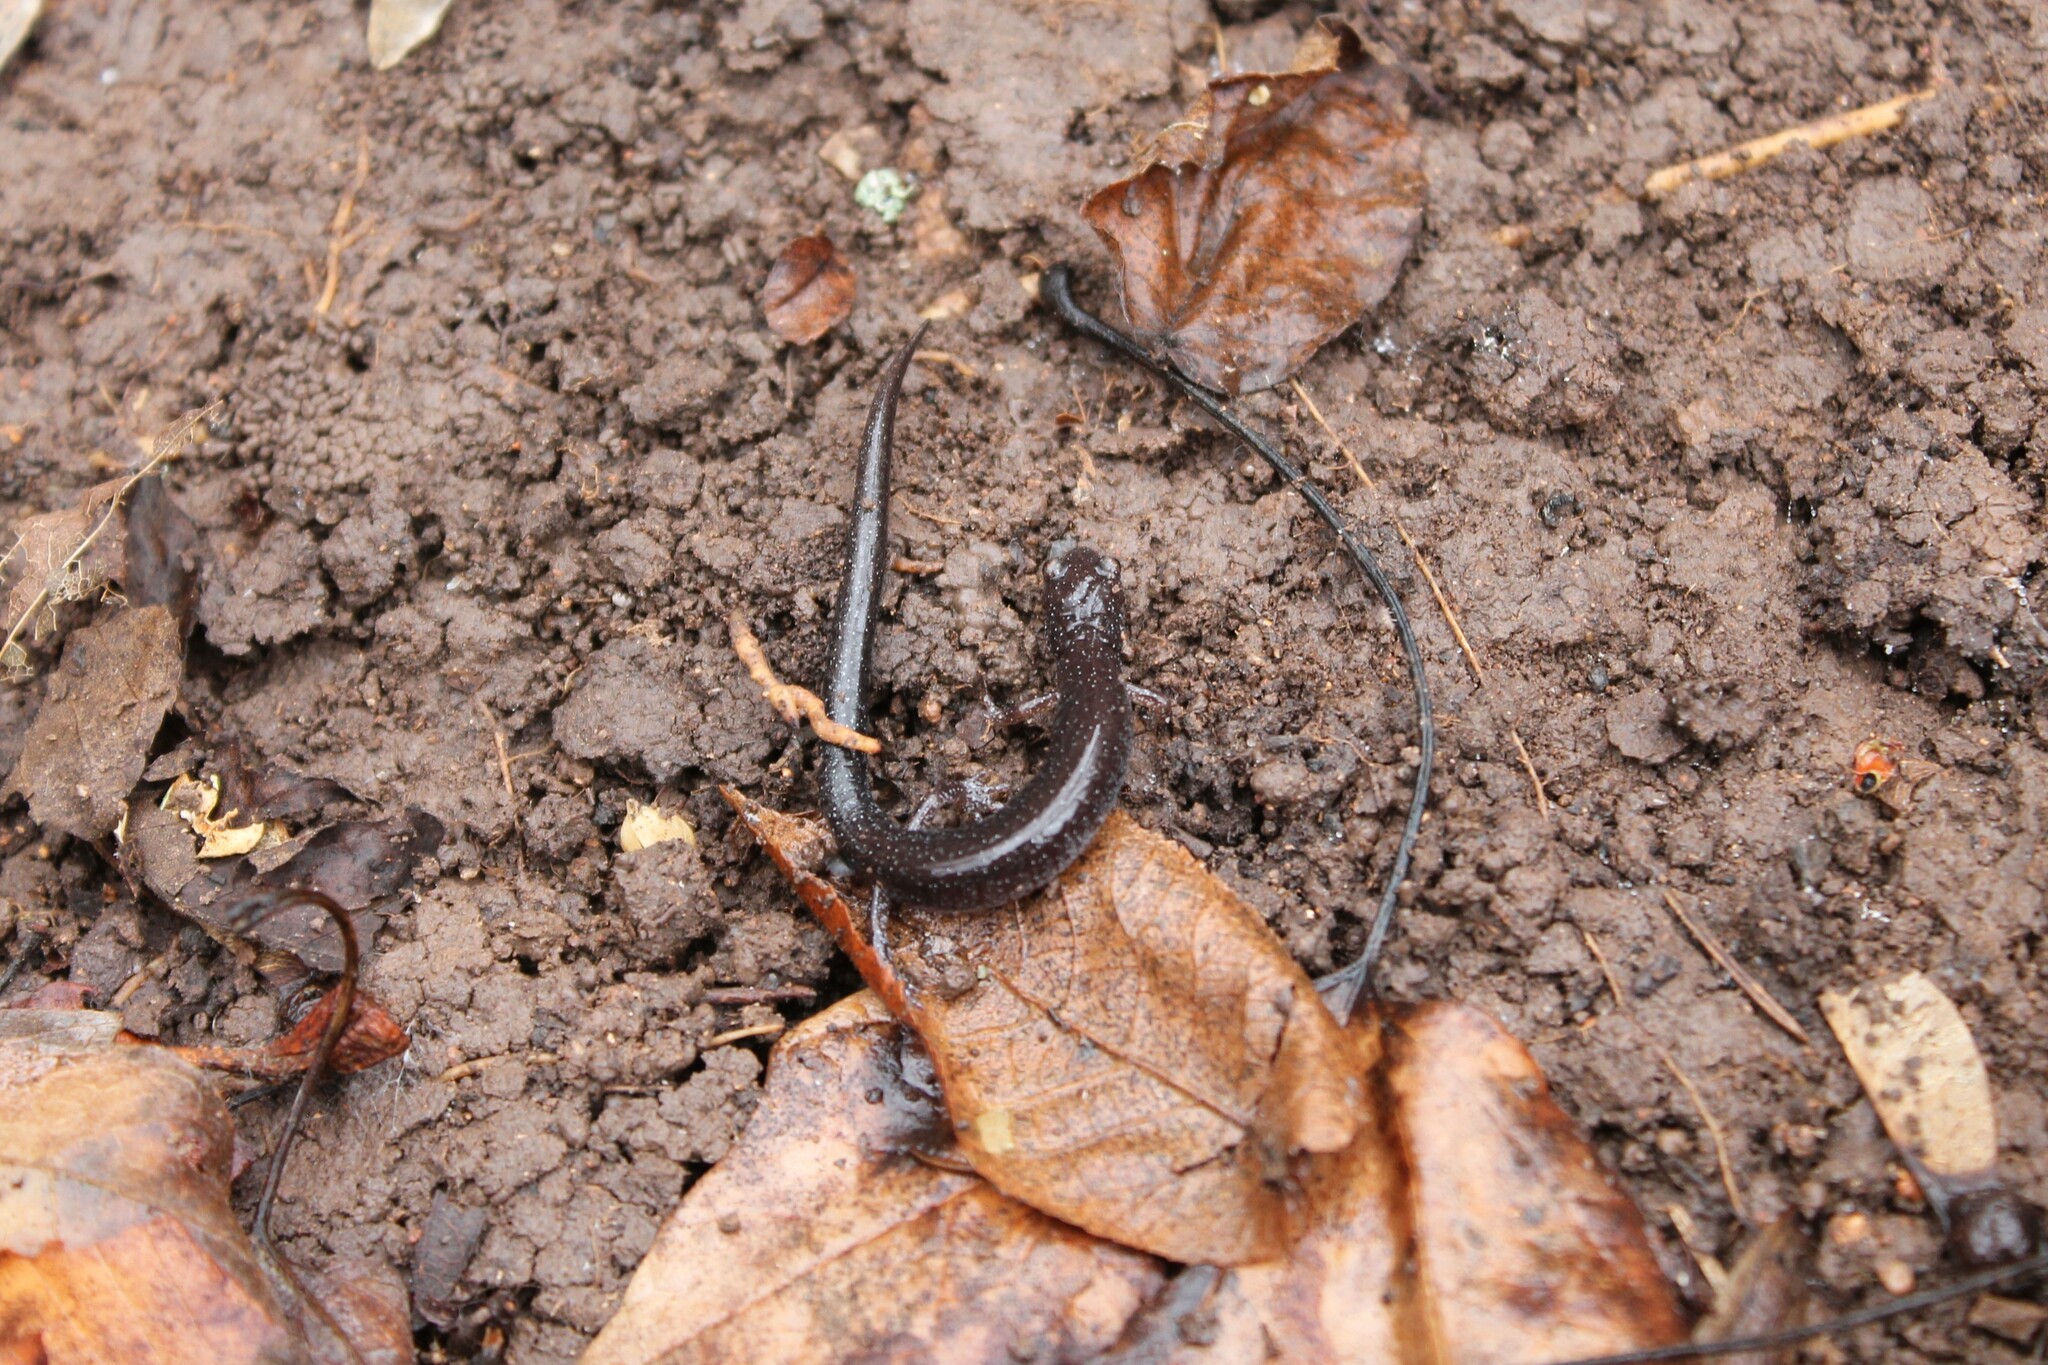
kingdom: Animalia
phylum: Chordata
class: Amphibia
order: Caudata
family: Plethodontidae
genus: Plethodon
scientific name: Plethodon dorsalis
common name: Northern zigzag salamander
